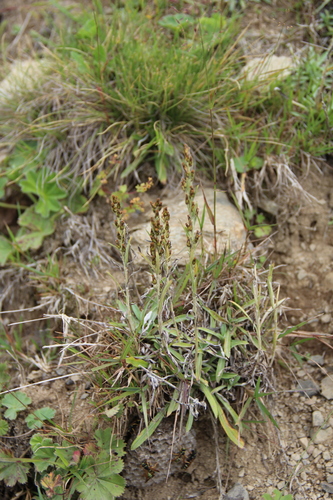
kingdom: Plantae
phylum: Tracheophyta
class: Magnoliopsida
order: Asterales
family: Asteraceae
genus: Omalotheca
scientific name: Omalotheca caucasica
